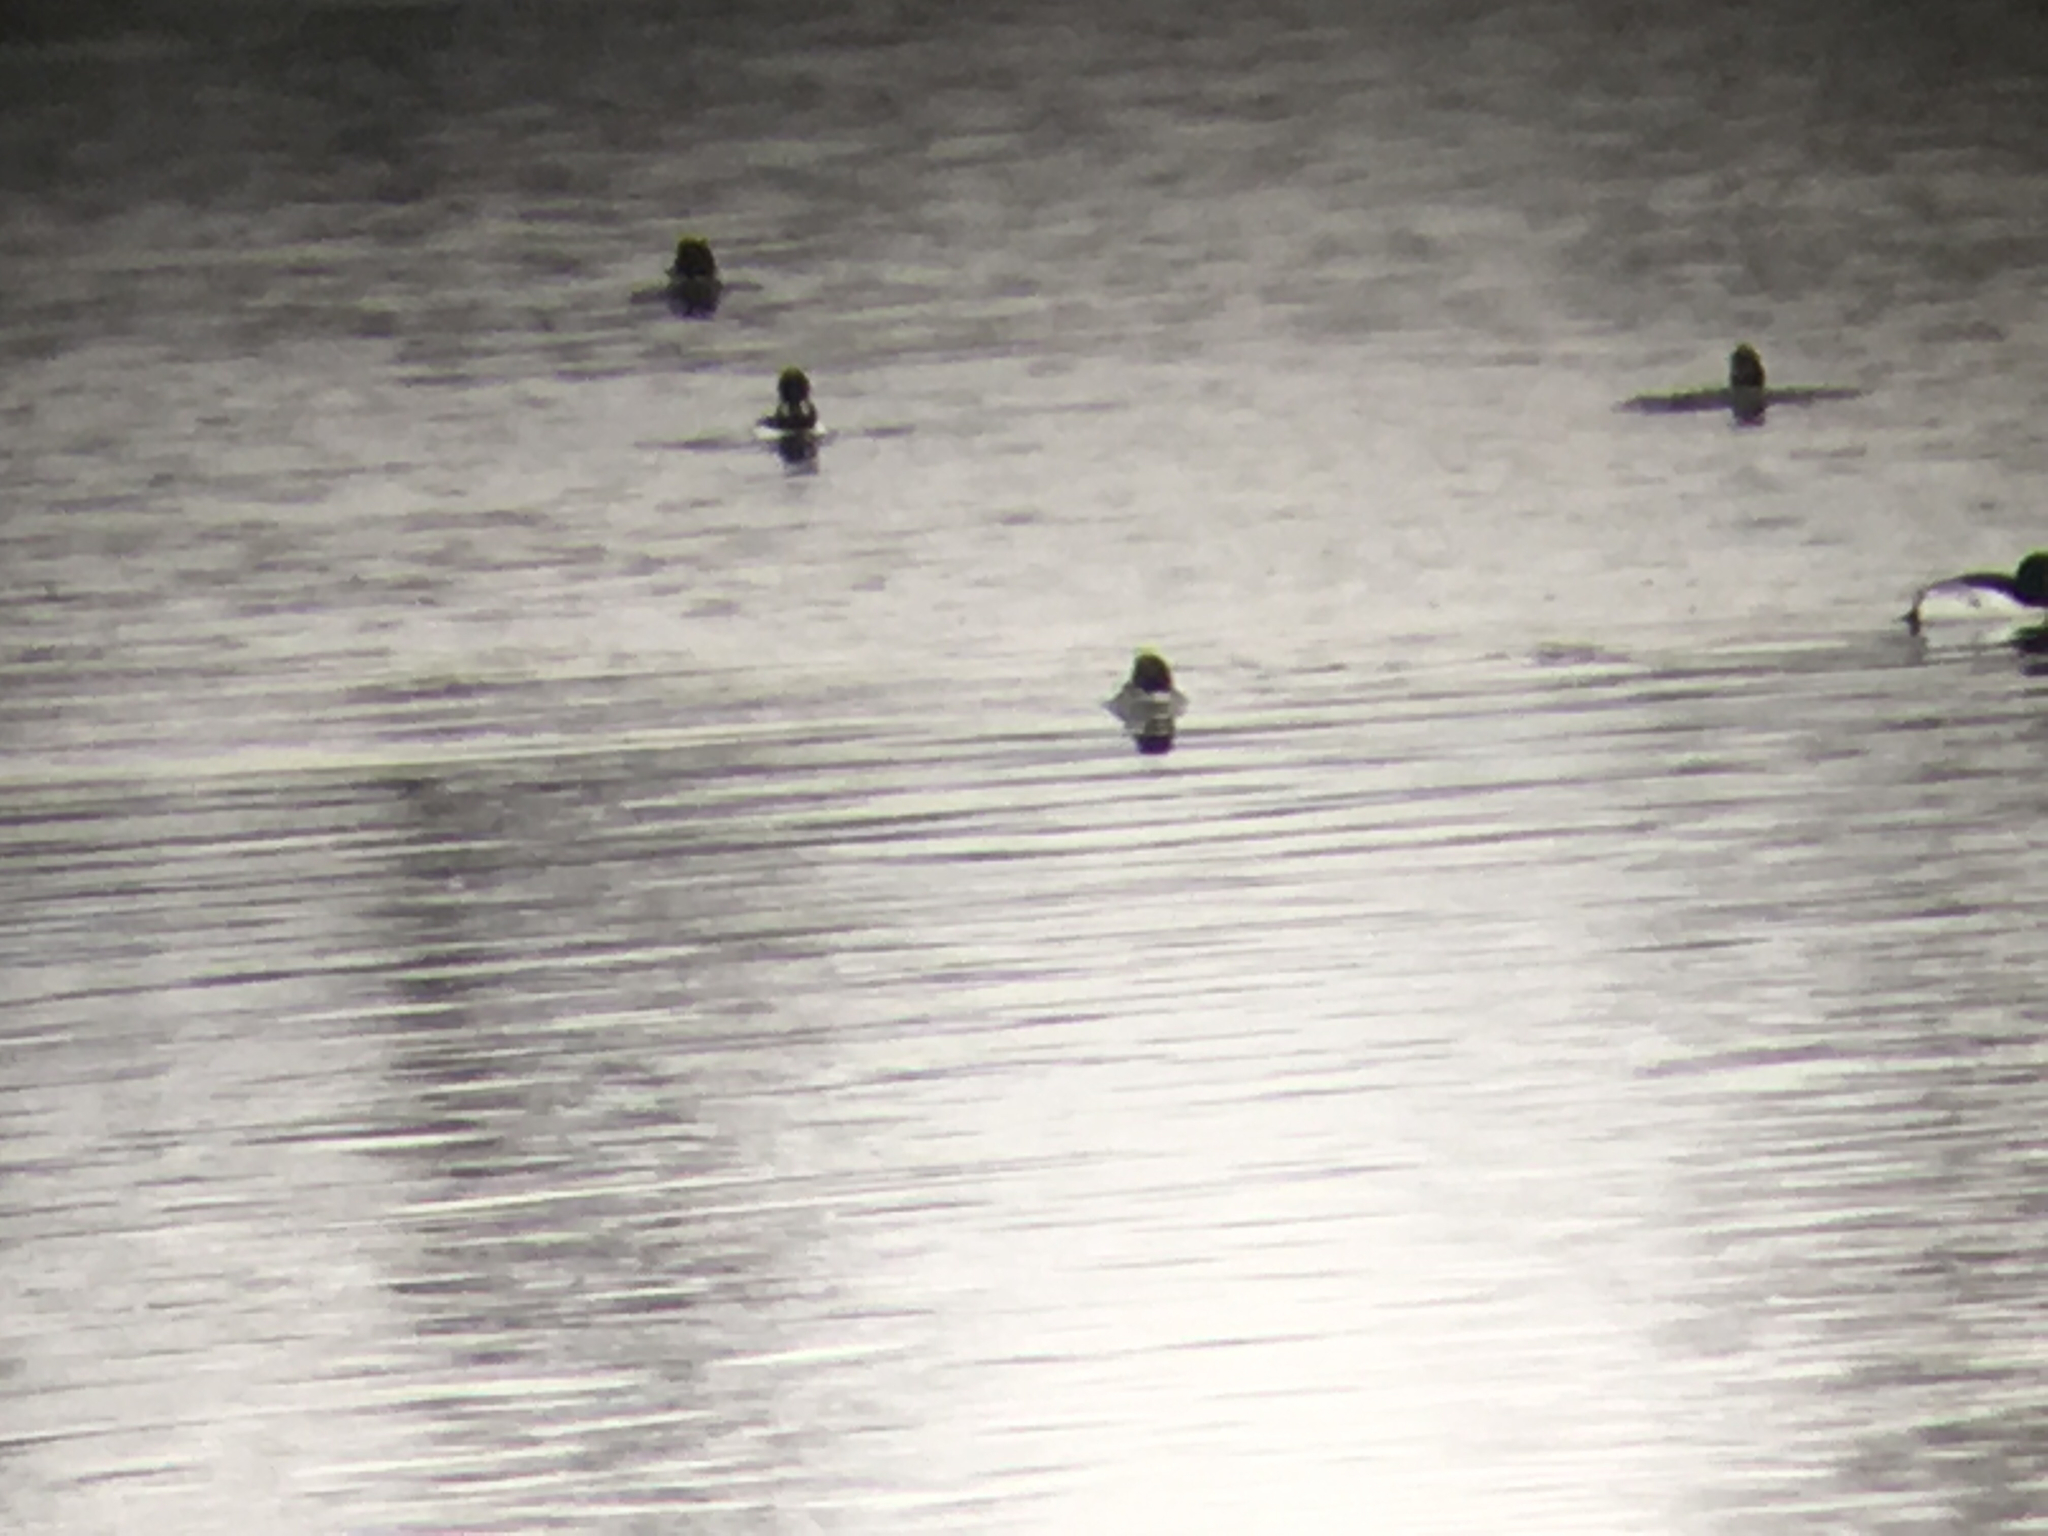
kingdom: Animalia
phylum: Chordata
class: Aves
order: Anseriformes
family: Anatidae
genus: Bucephala
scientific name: Bucephala clangula
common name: Common goldeneye
